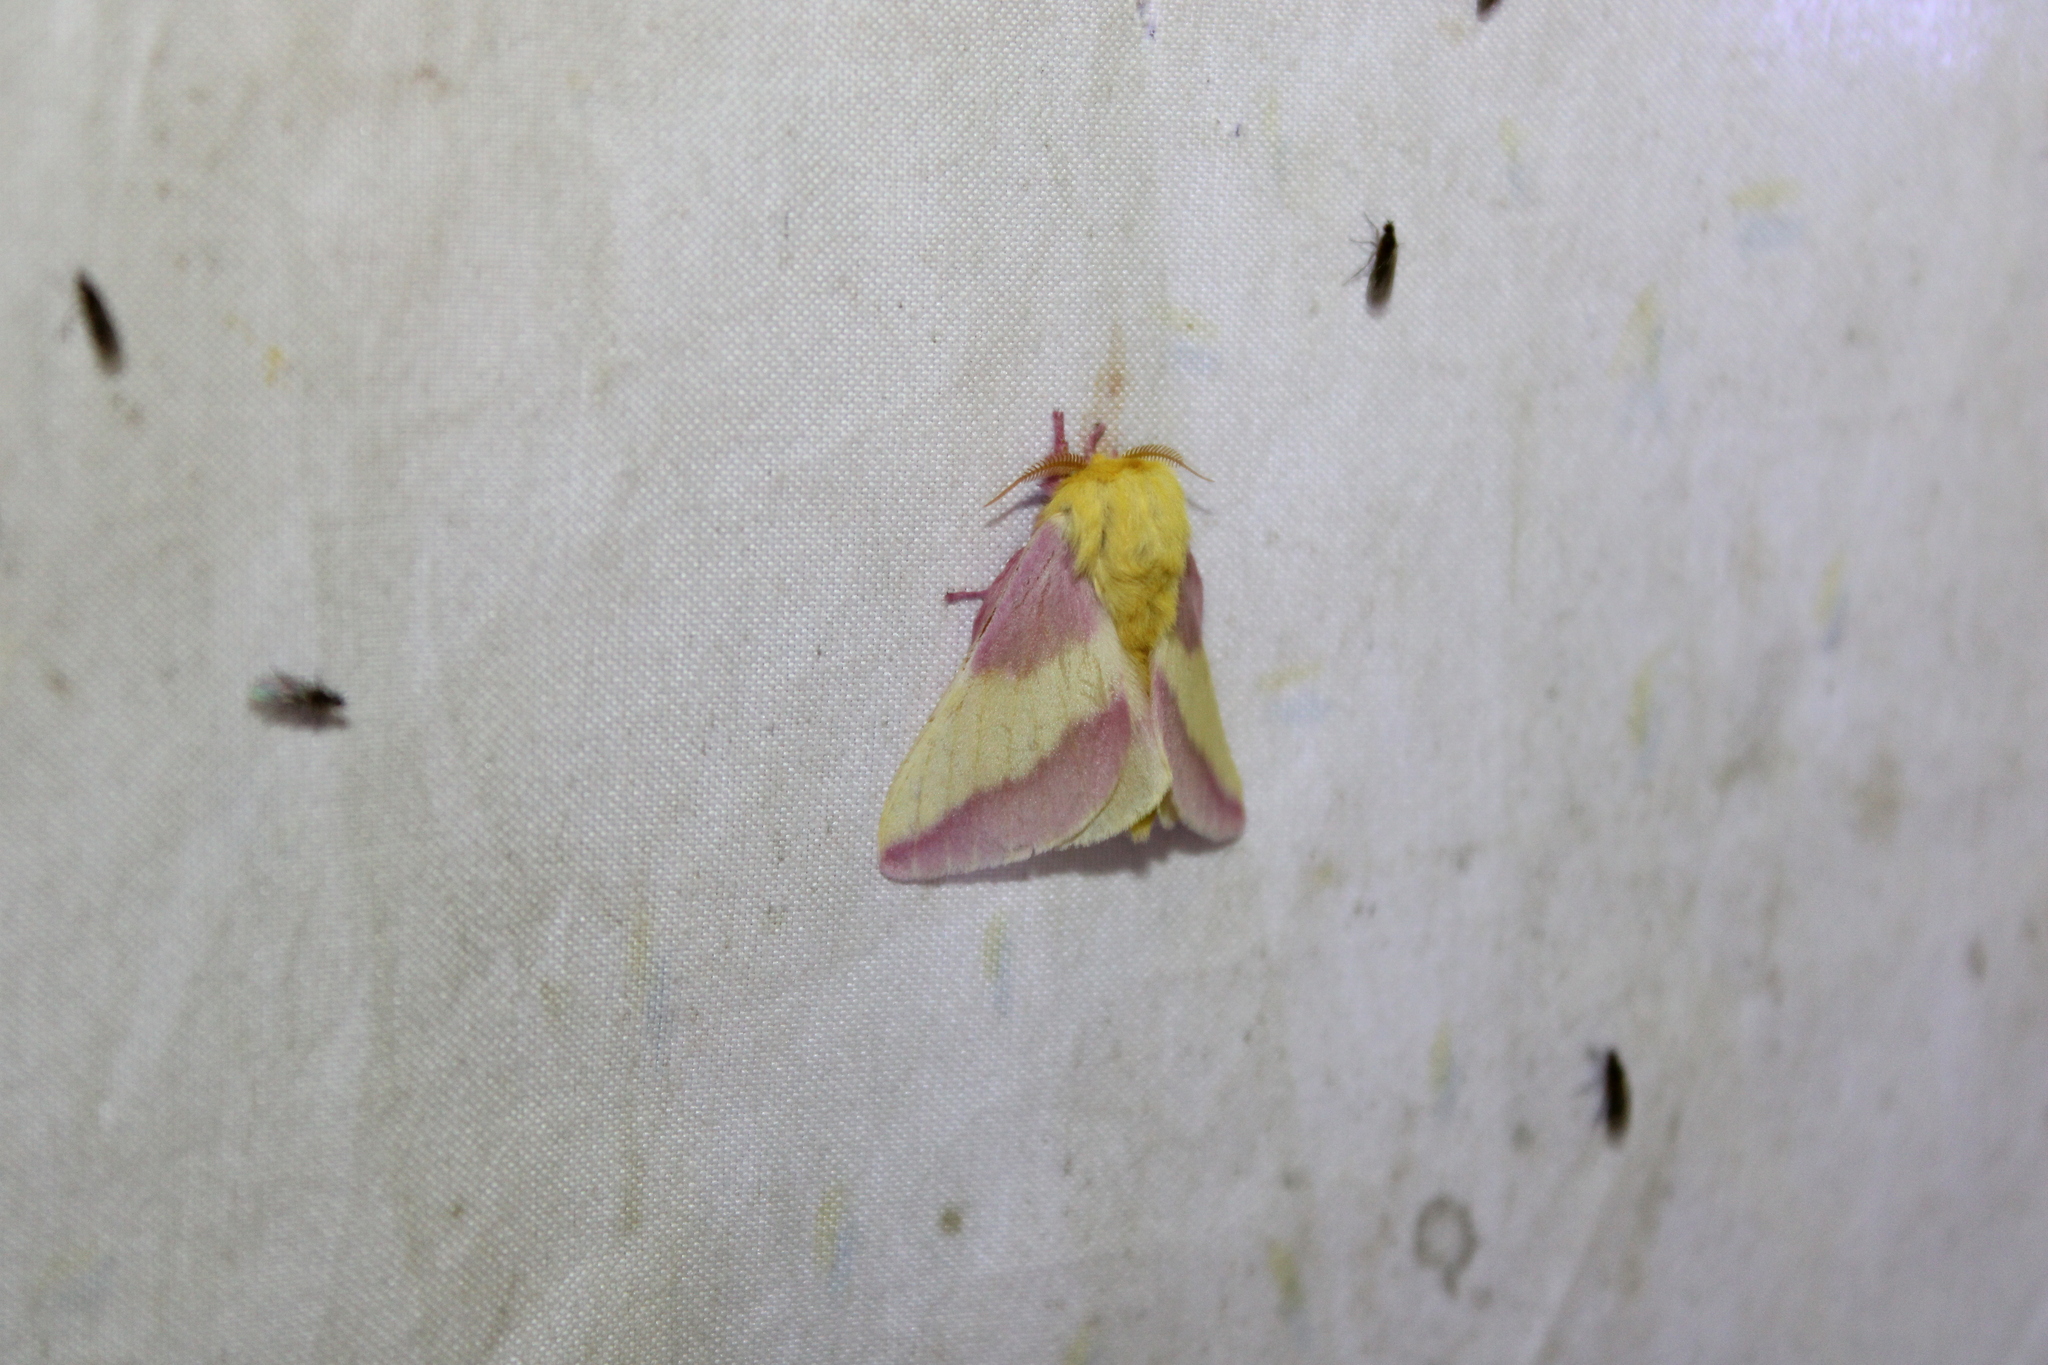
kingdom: Animalia
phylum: Arthropoda
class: Insecta
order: Lepidoptera
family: Saturniidae
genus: Dryocampa
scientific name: Dryocampa rubicunda
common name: Rosy maple moth
